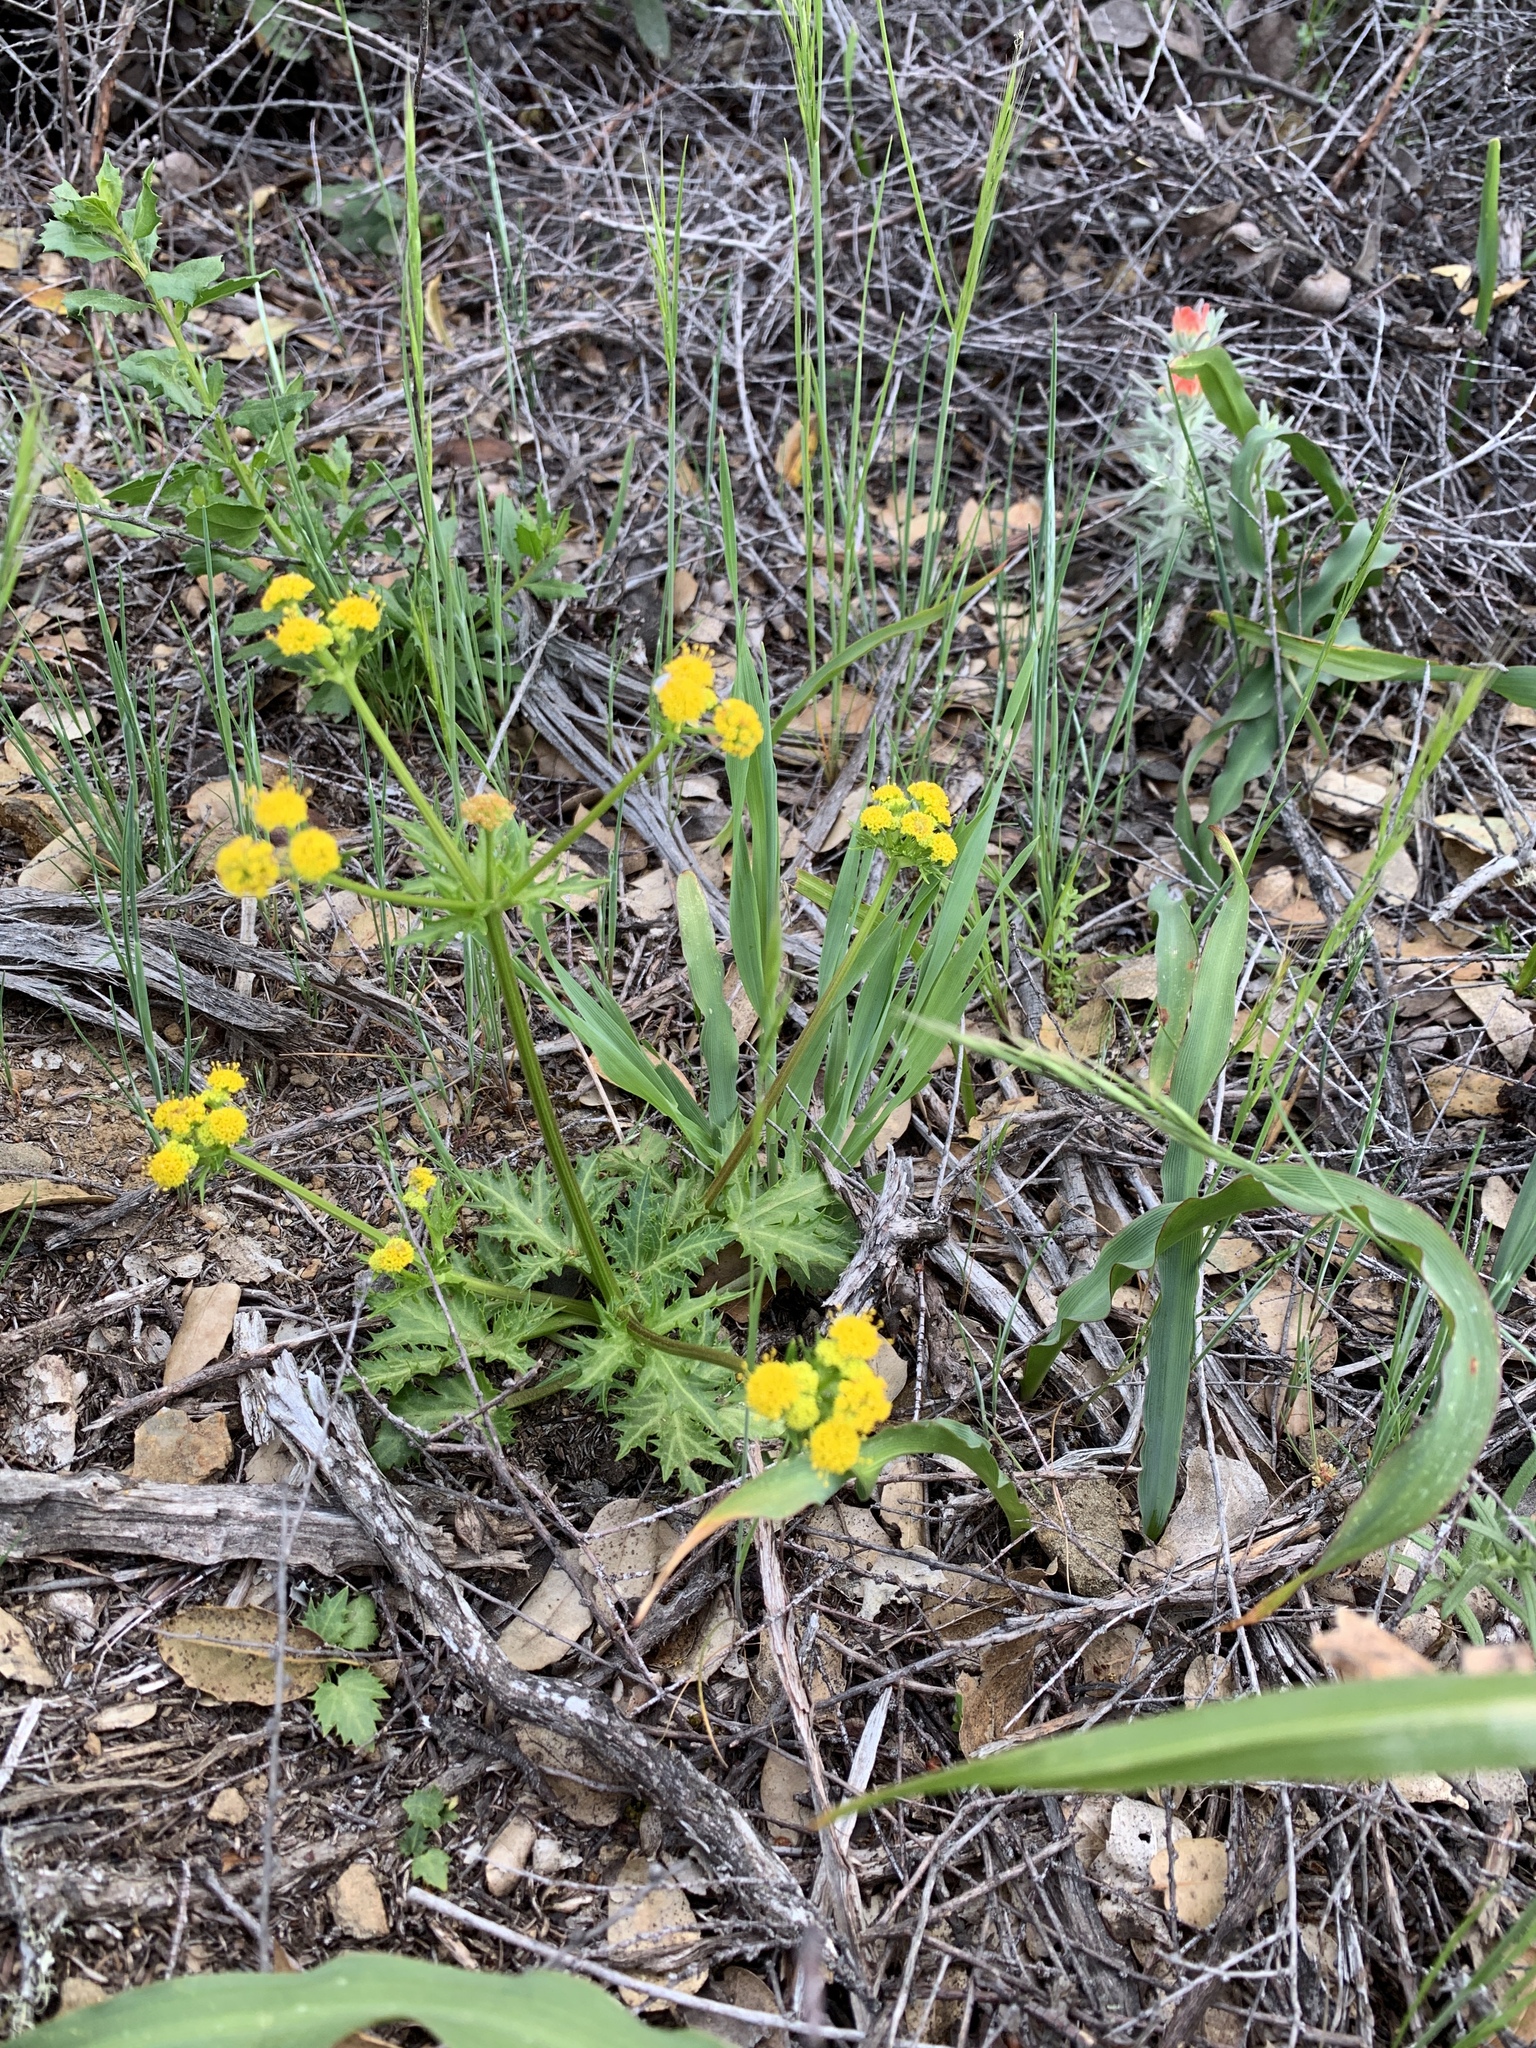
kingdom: Plantae
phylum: Tracheophyta
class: Magnoliopsida
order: Apiales
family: Apiaceae
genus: Sanicula
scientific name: Sanicula laciniata
